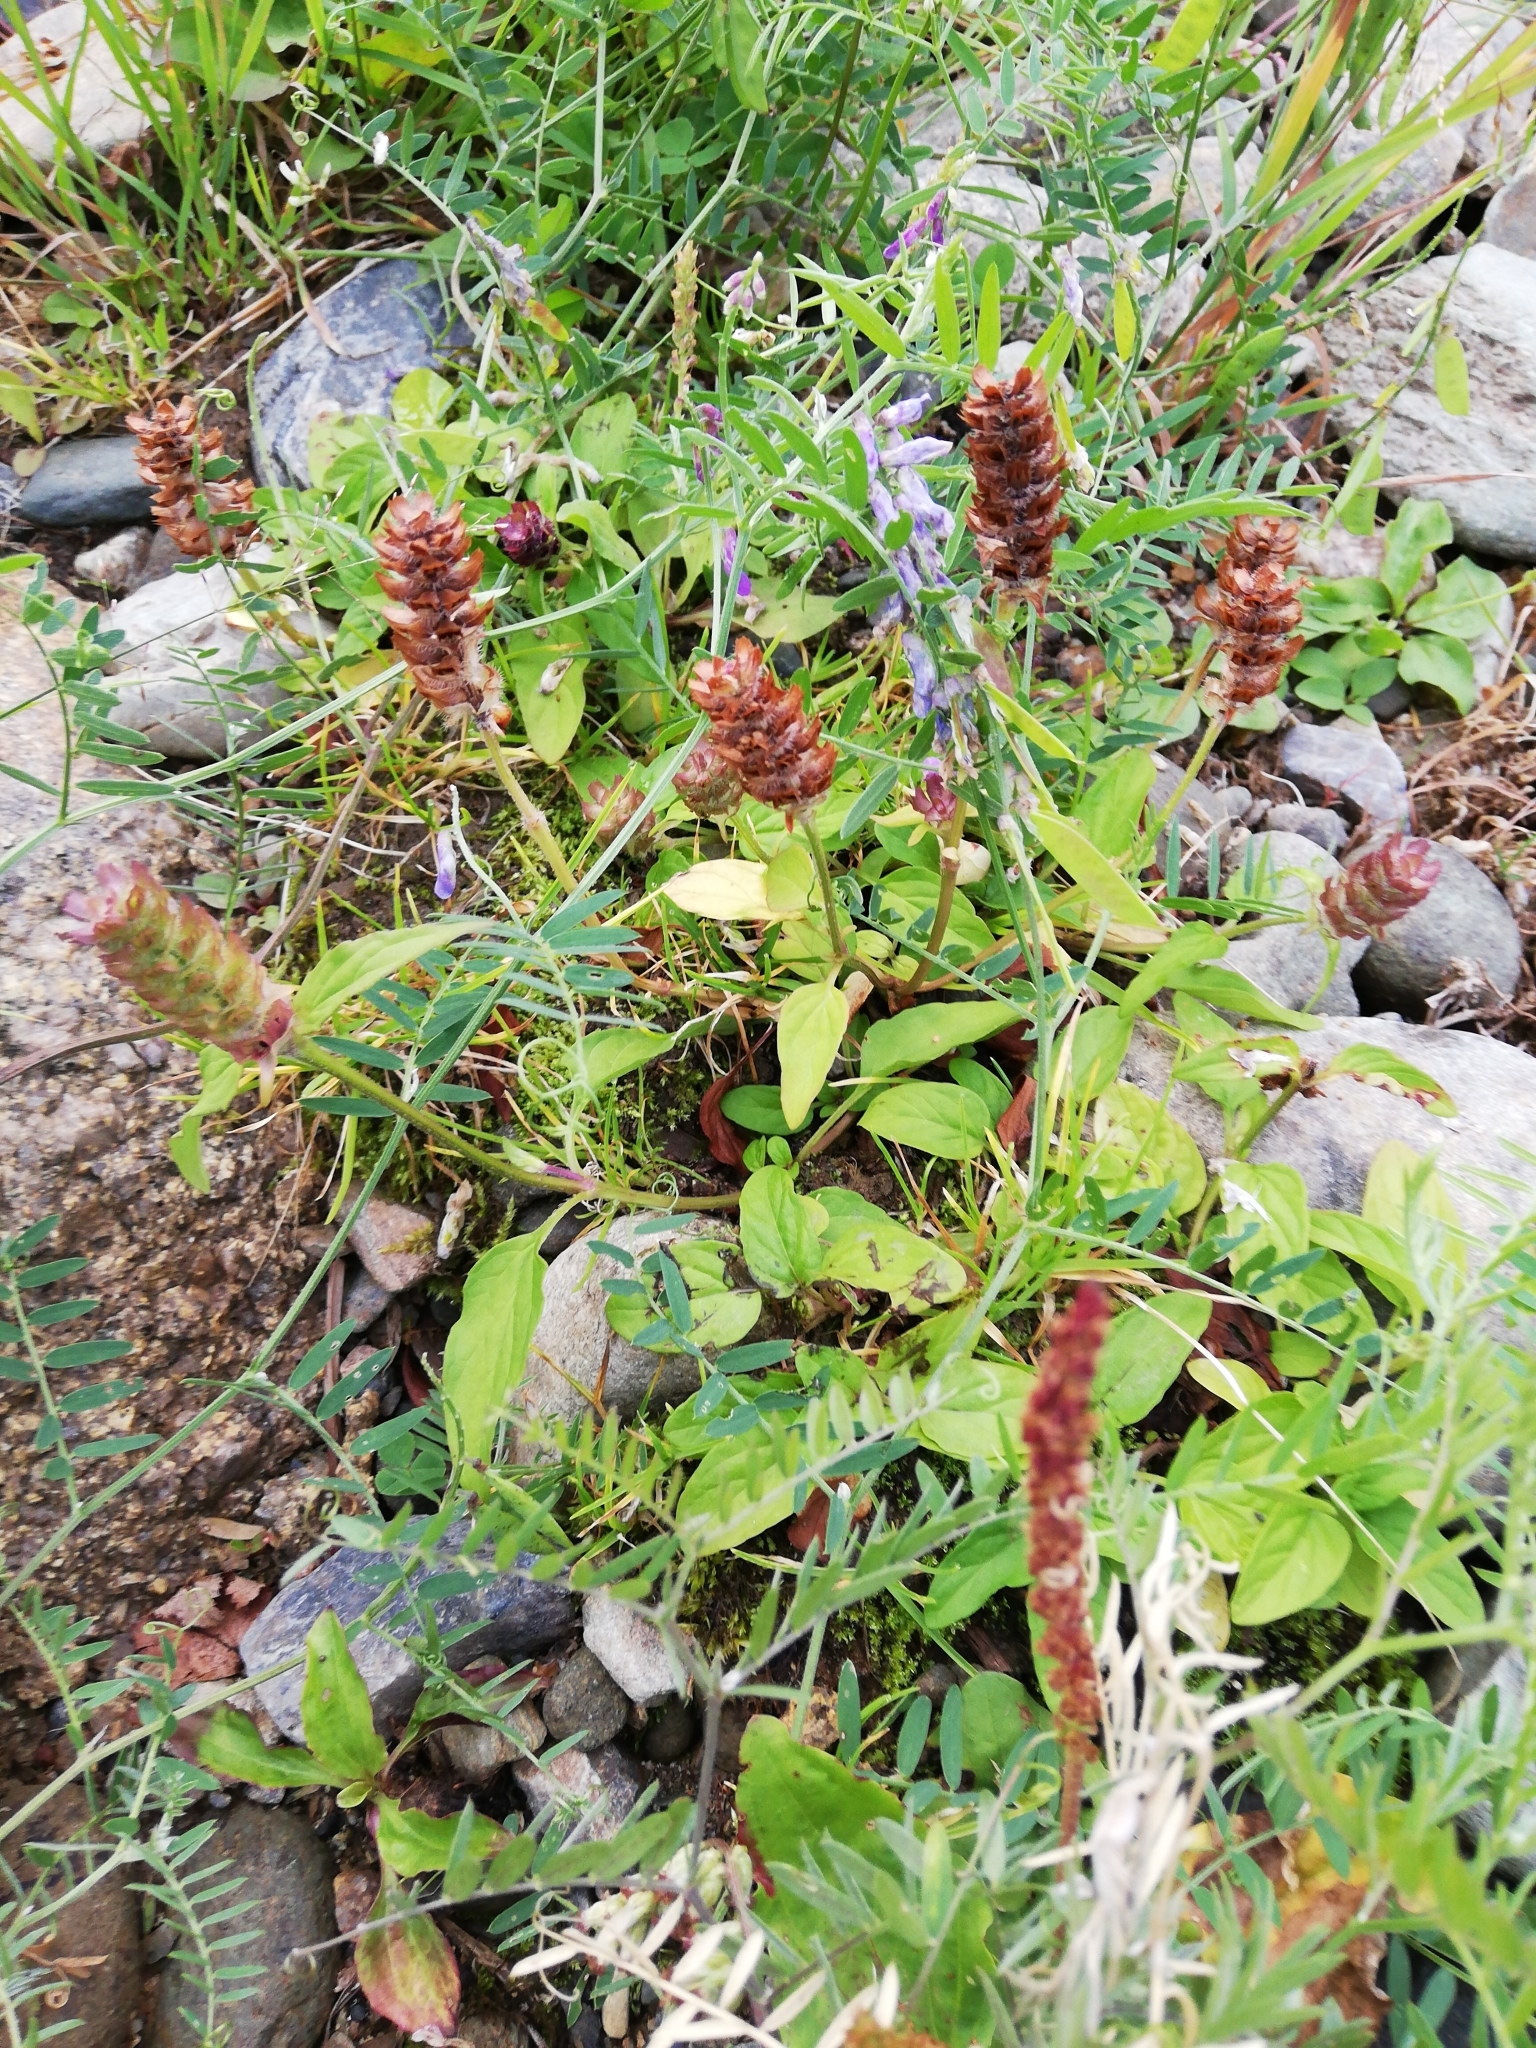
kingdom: Plantae
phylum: Tracheophyta
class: Magnoliopsida
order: Lamiales
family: Lamiaceae
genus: Prunella
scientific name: Prunella vulgaris
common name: Heal-all
